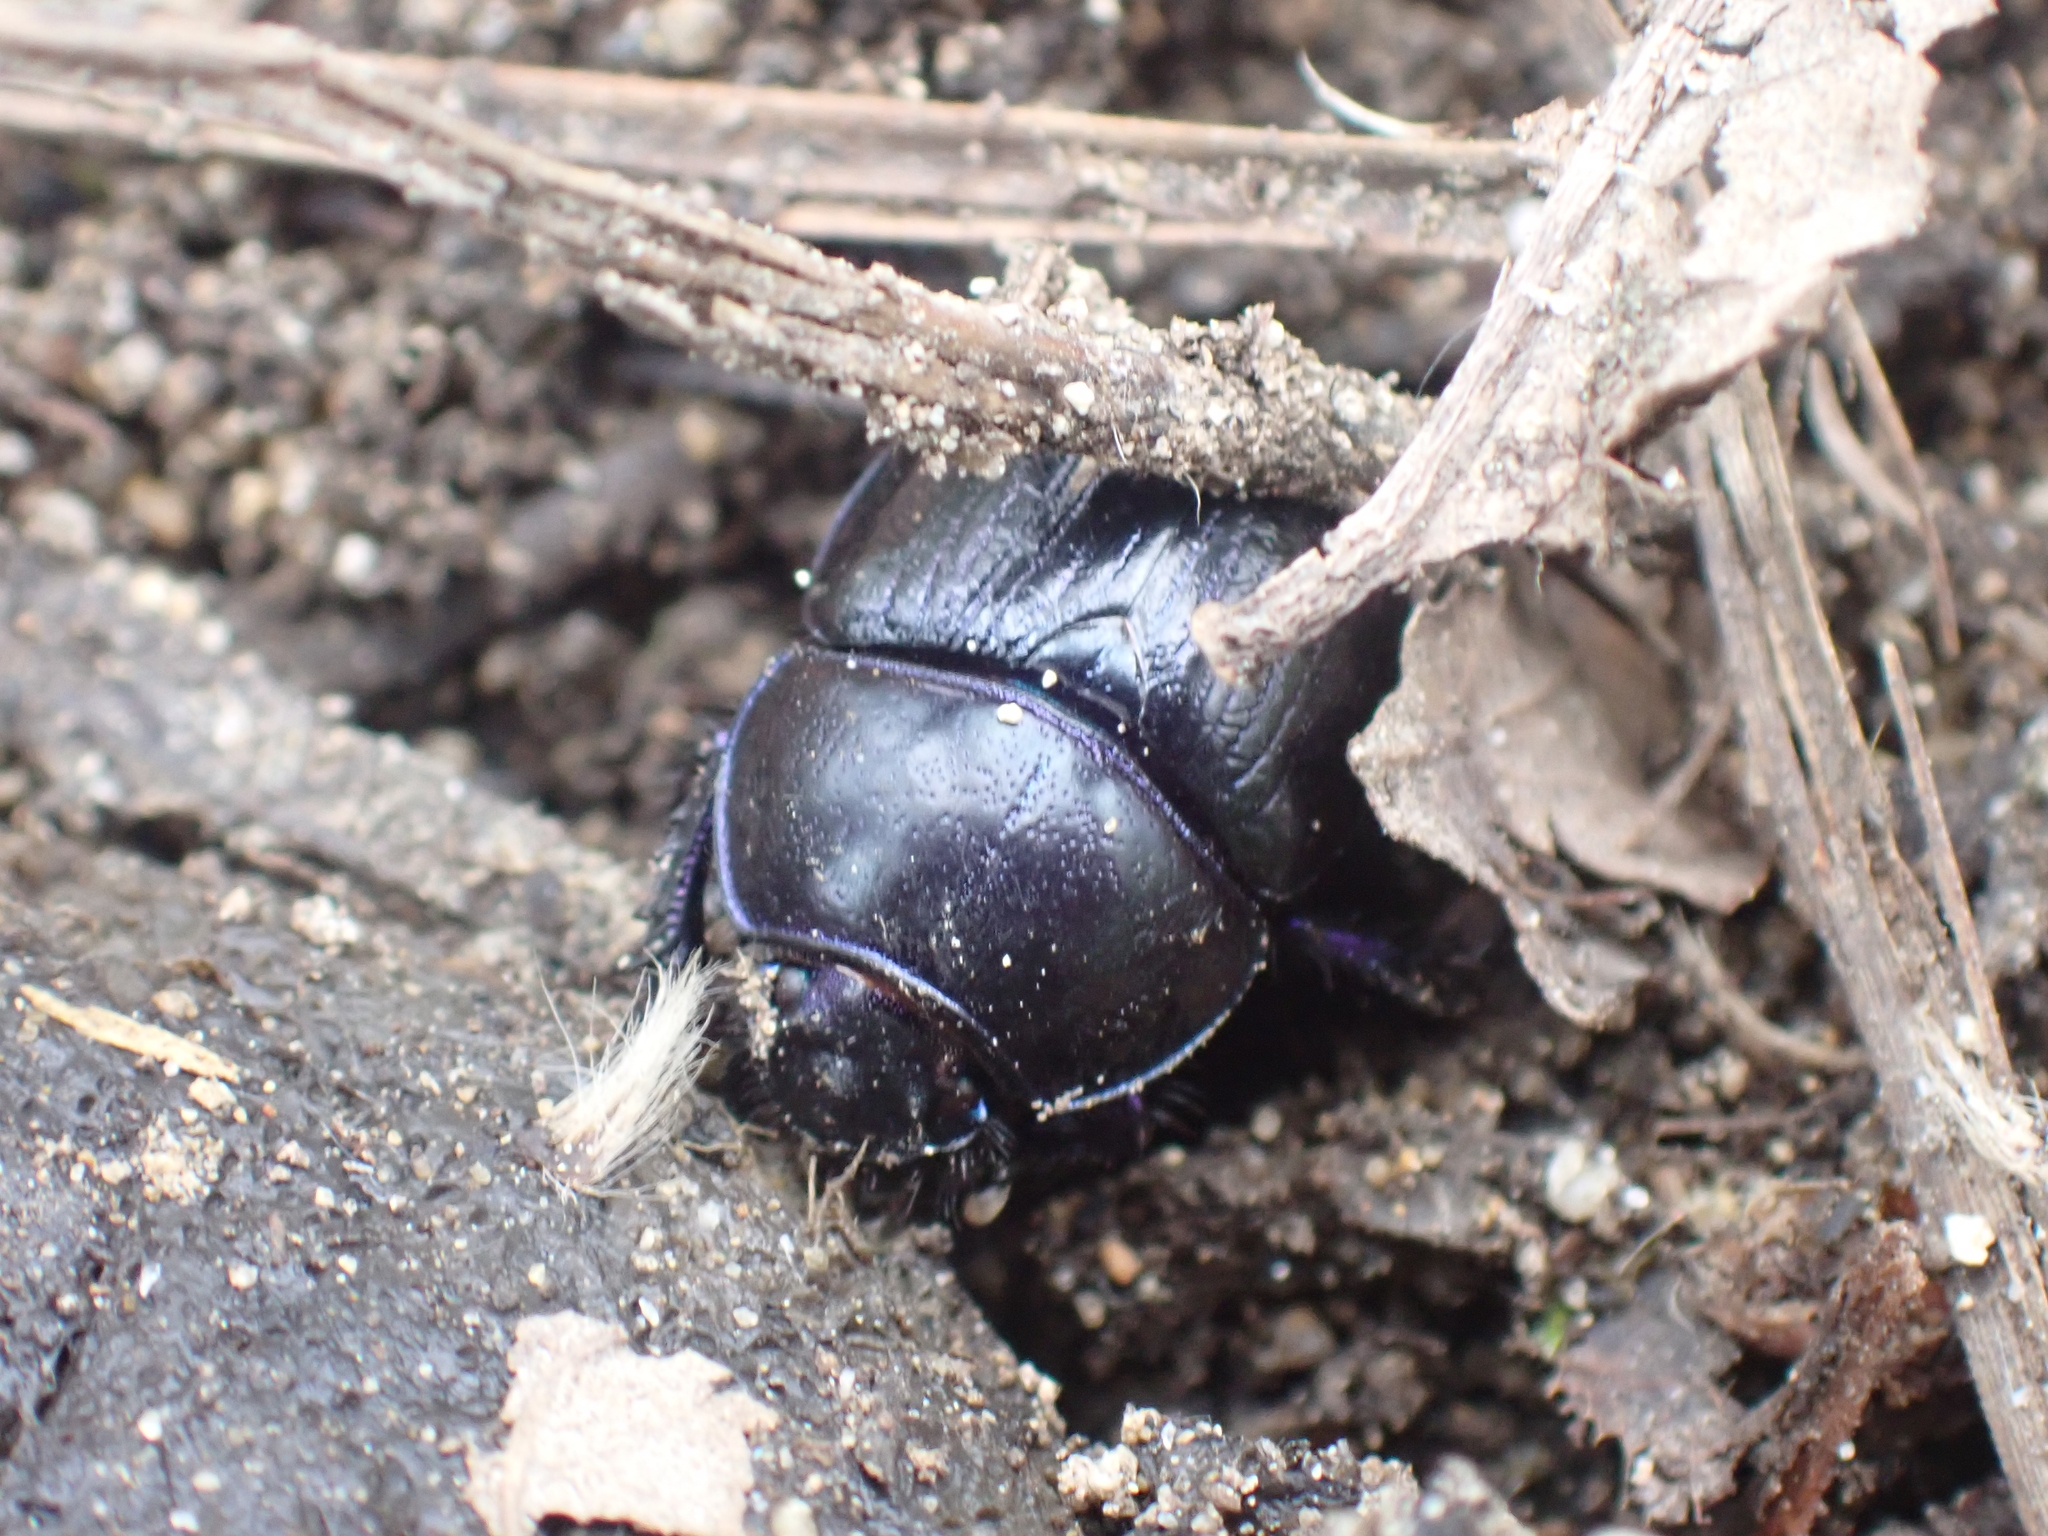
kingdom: Animalia
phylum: Arthropoda
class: Insecta
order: Coleoptera
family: Geotrupidae
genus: Anoplotrupes
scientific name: Anoplotrupes stercorosus
